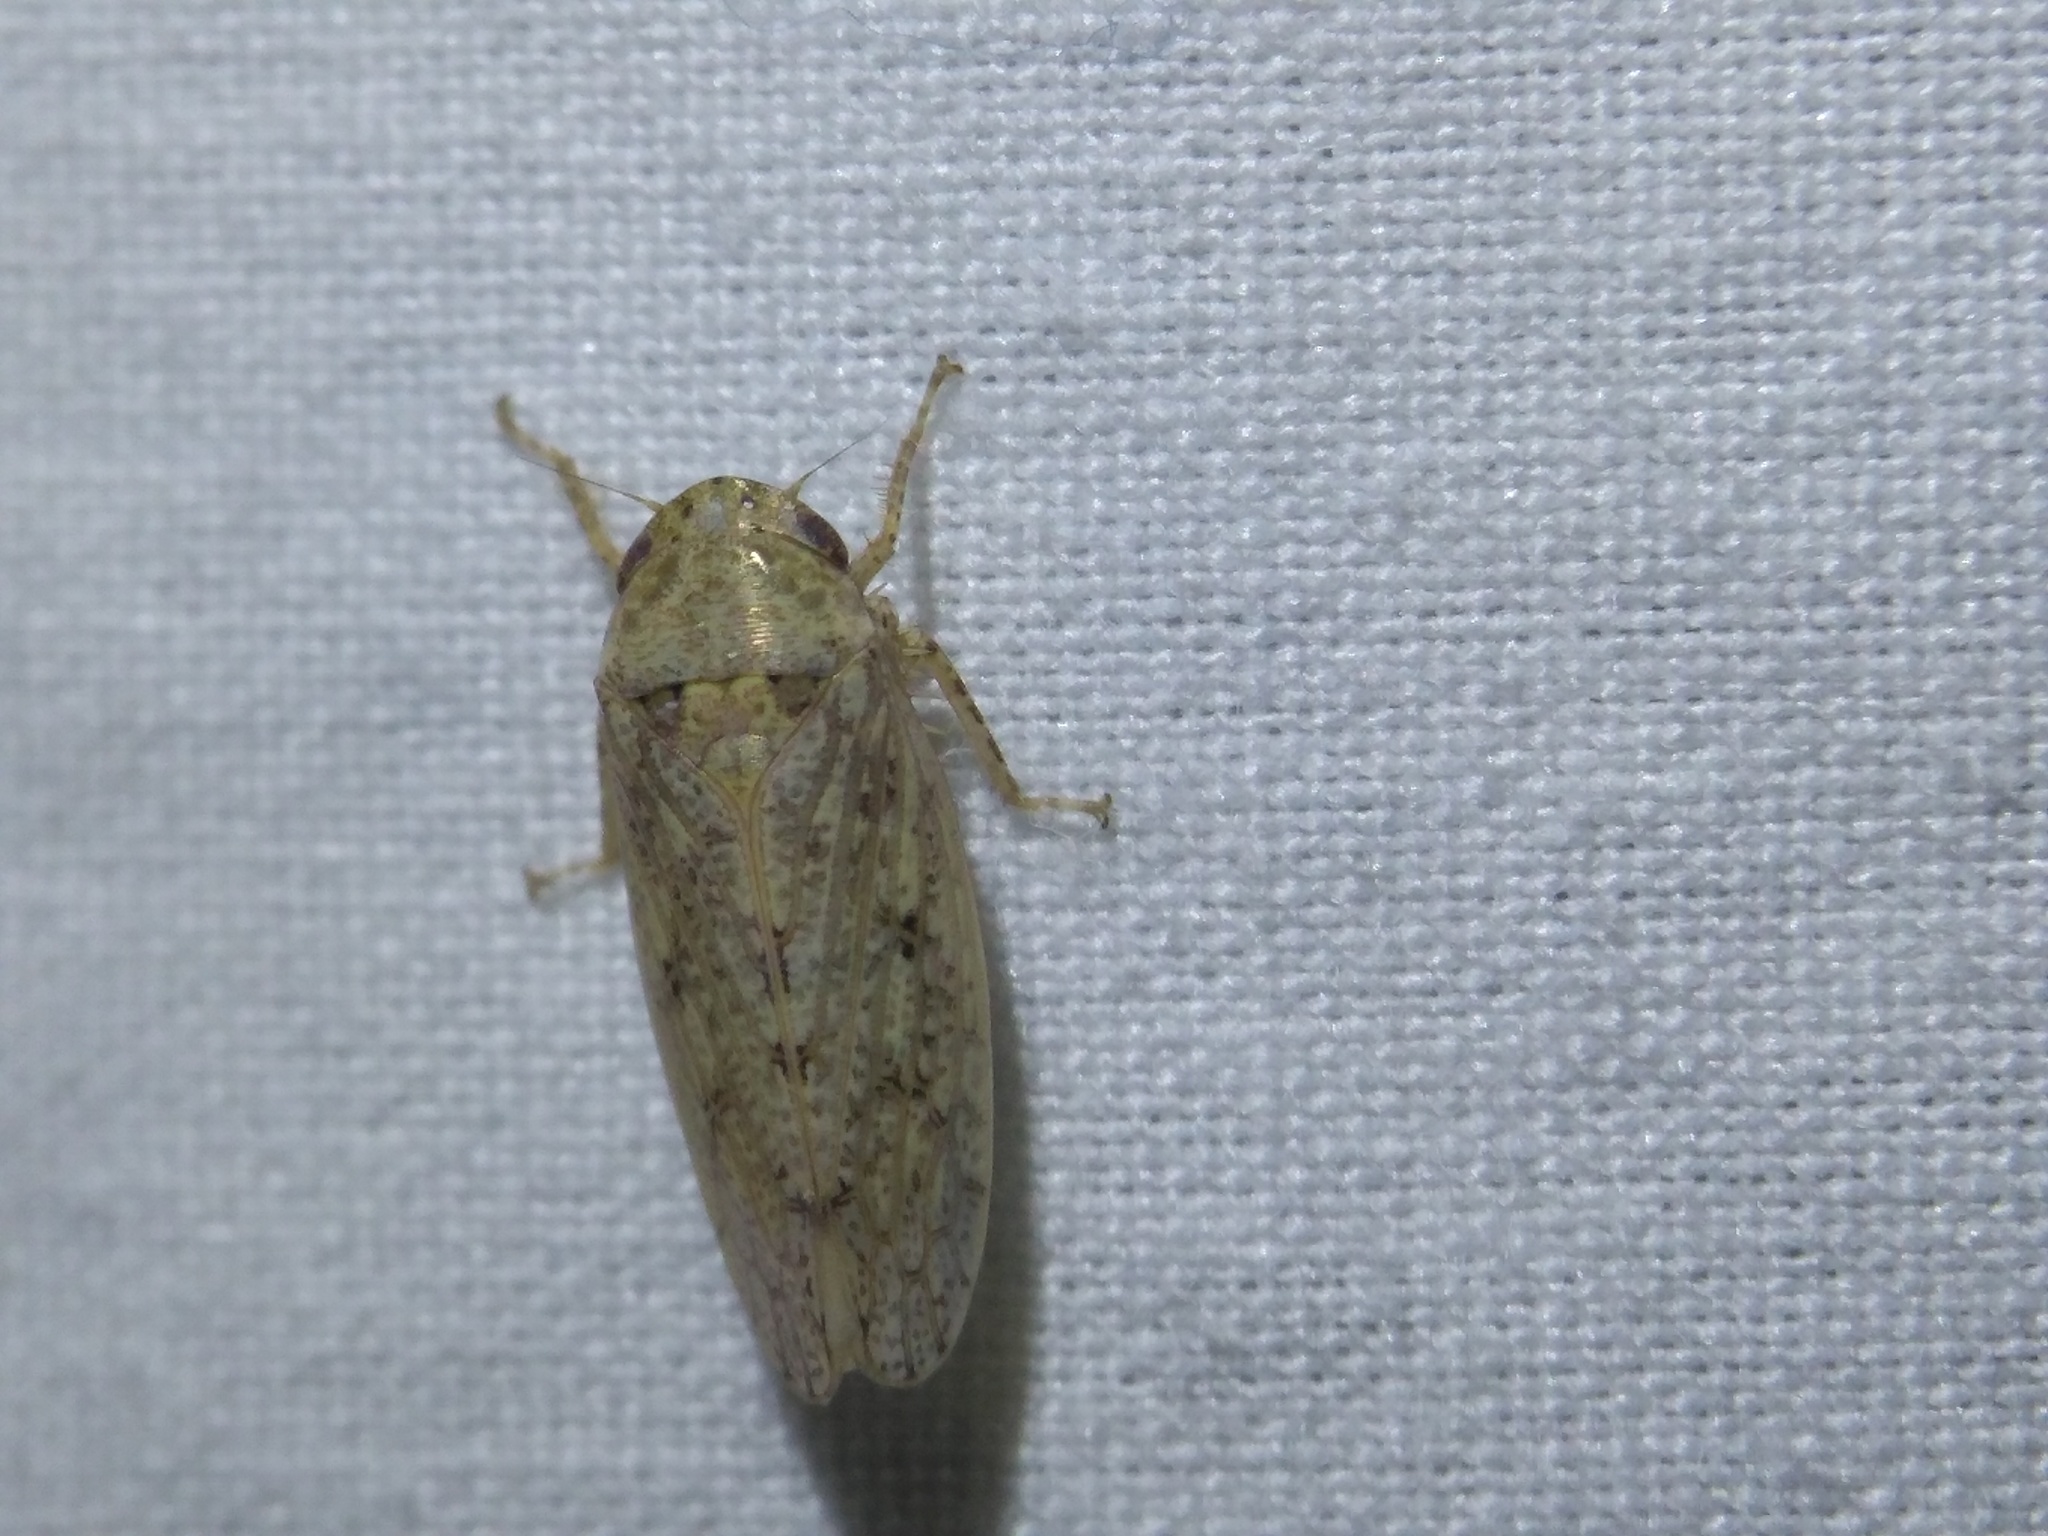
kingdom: Animalia
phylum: Arthropoda
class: Insecta
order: Hemiptera
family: Cicadellidae
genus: Curtara
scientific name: Curtara insularis
